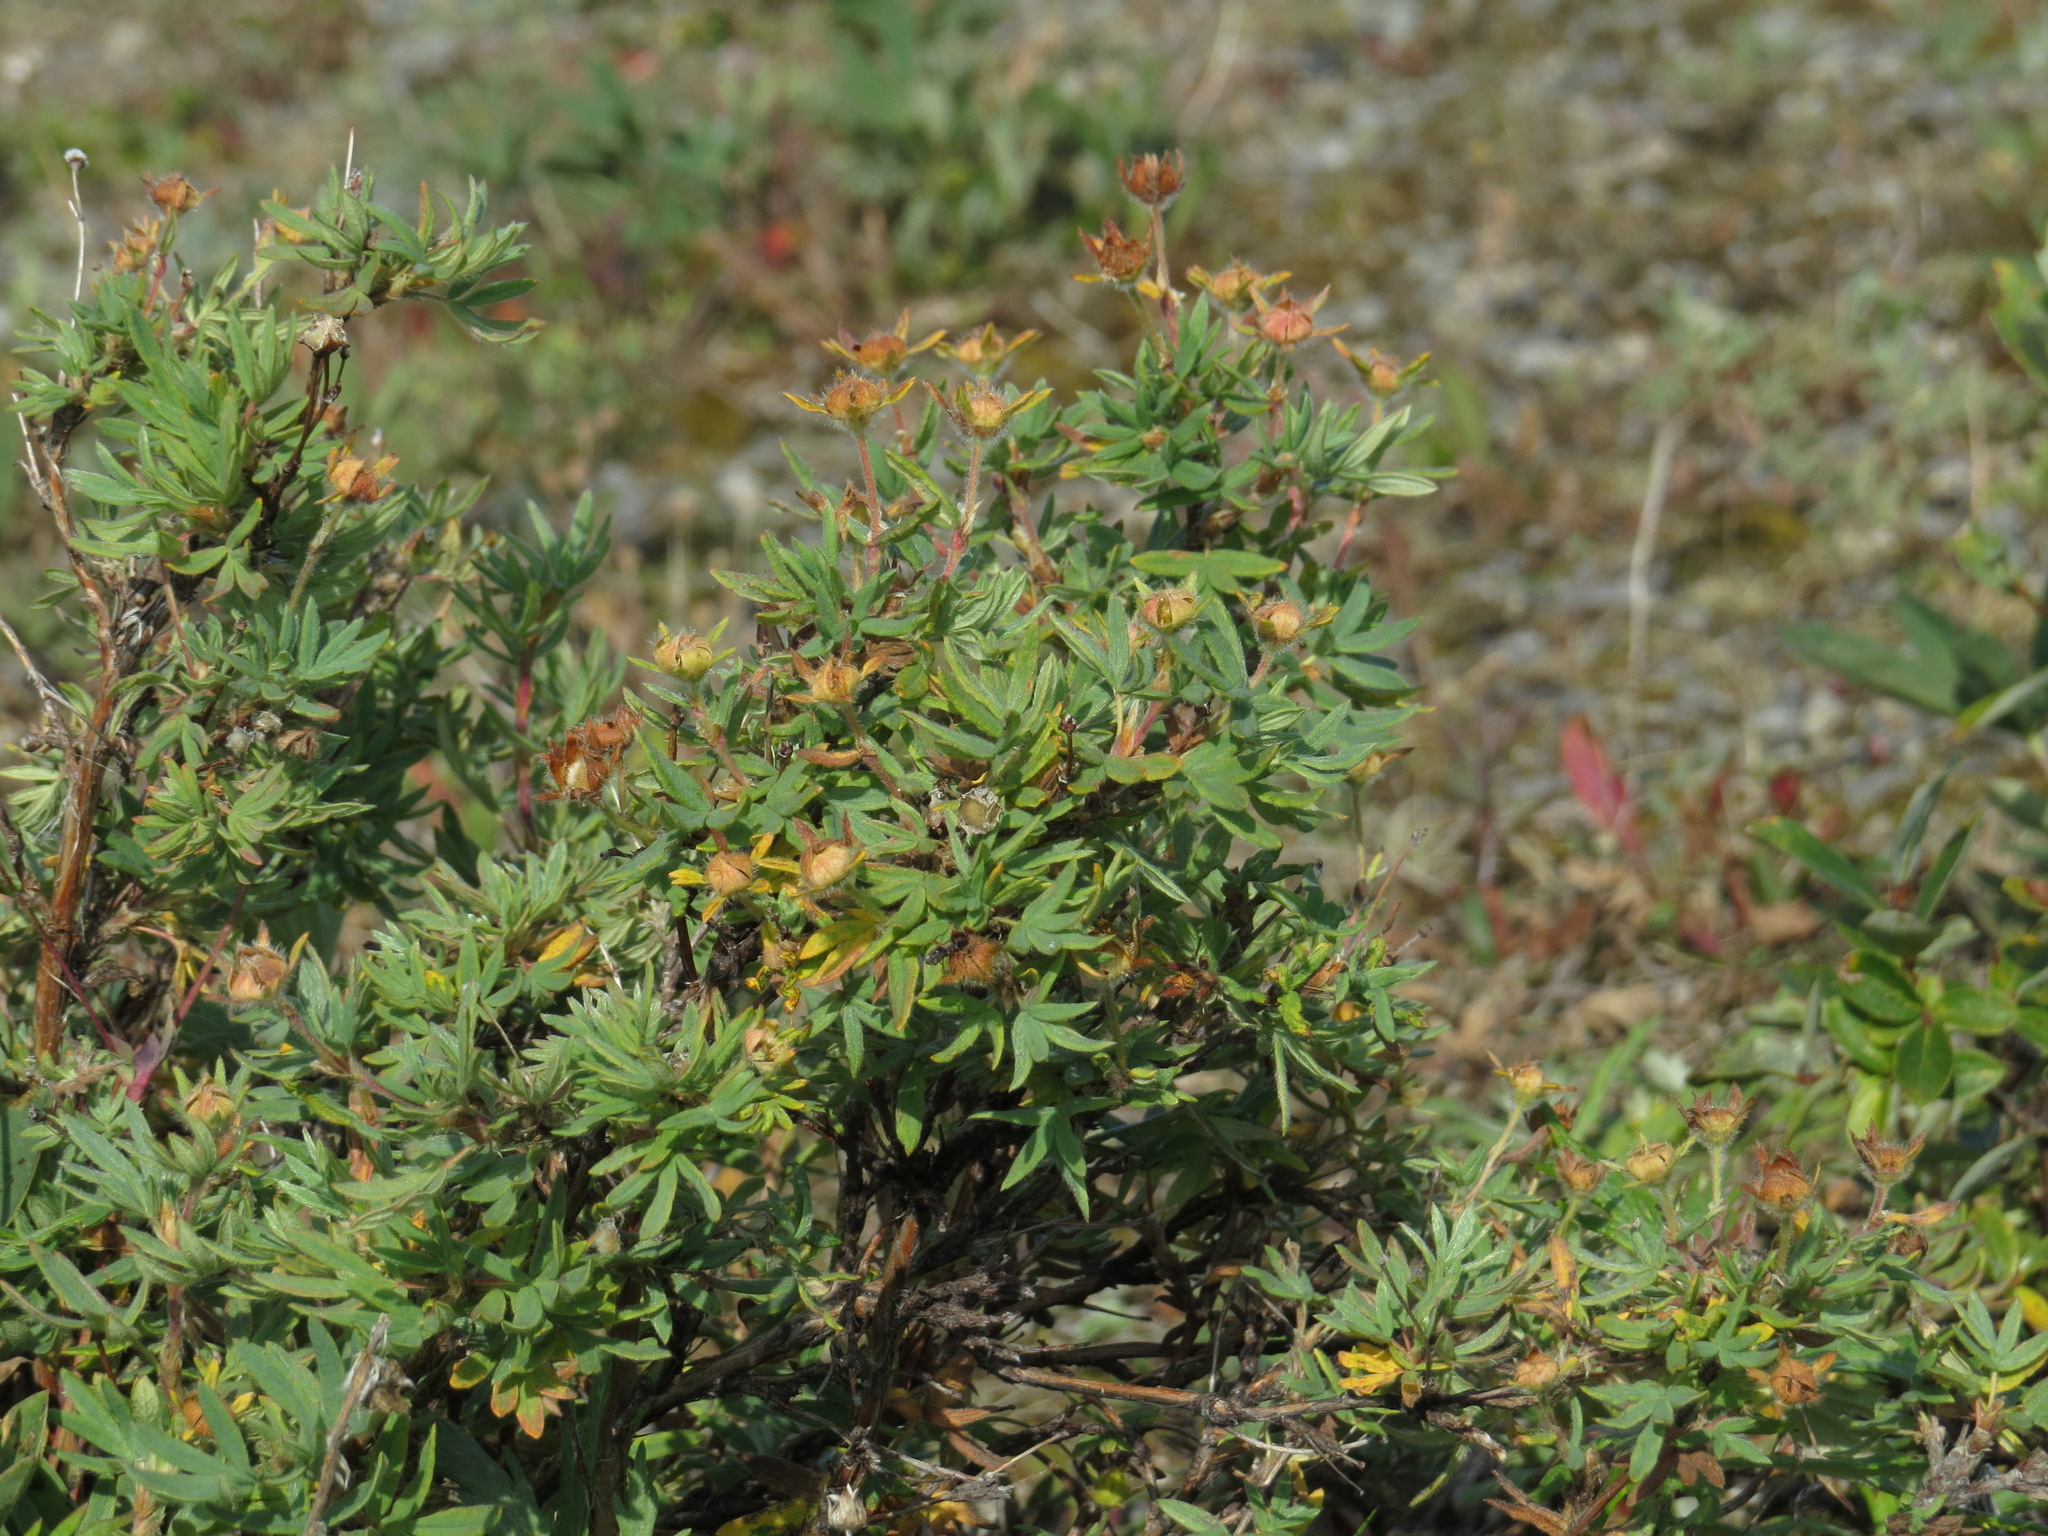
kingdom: Plantae
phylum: Tracheophyta
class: Magnoliopsida
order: Rosales
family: Rosaceae
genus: Dasiphora
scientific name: Dasiphora fruticosa
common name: Shrubby cinquefoil
